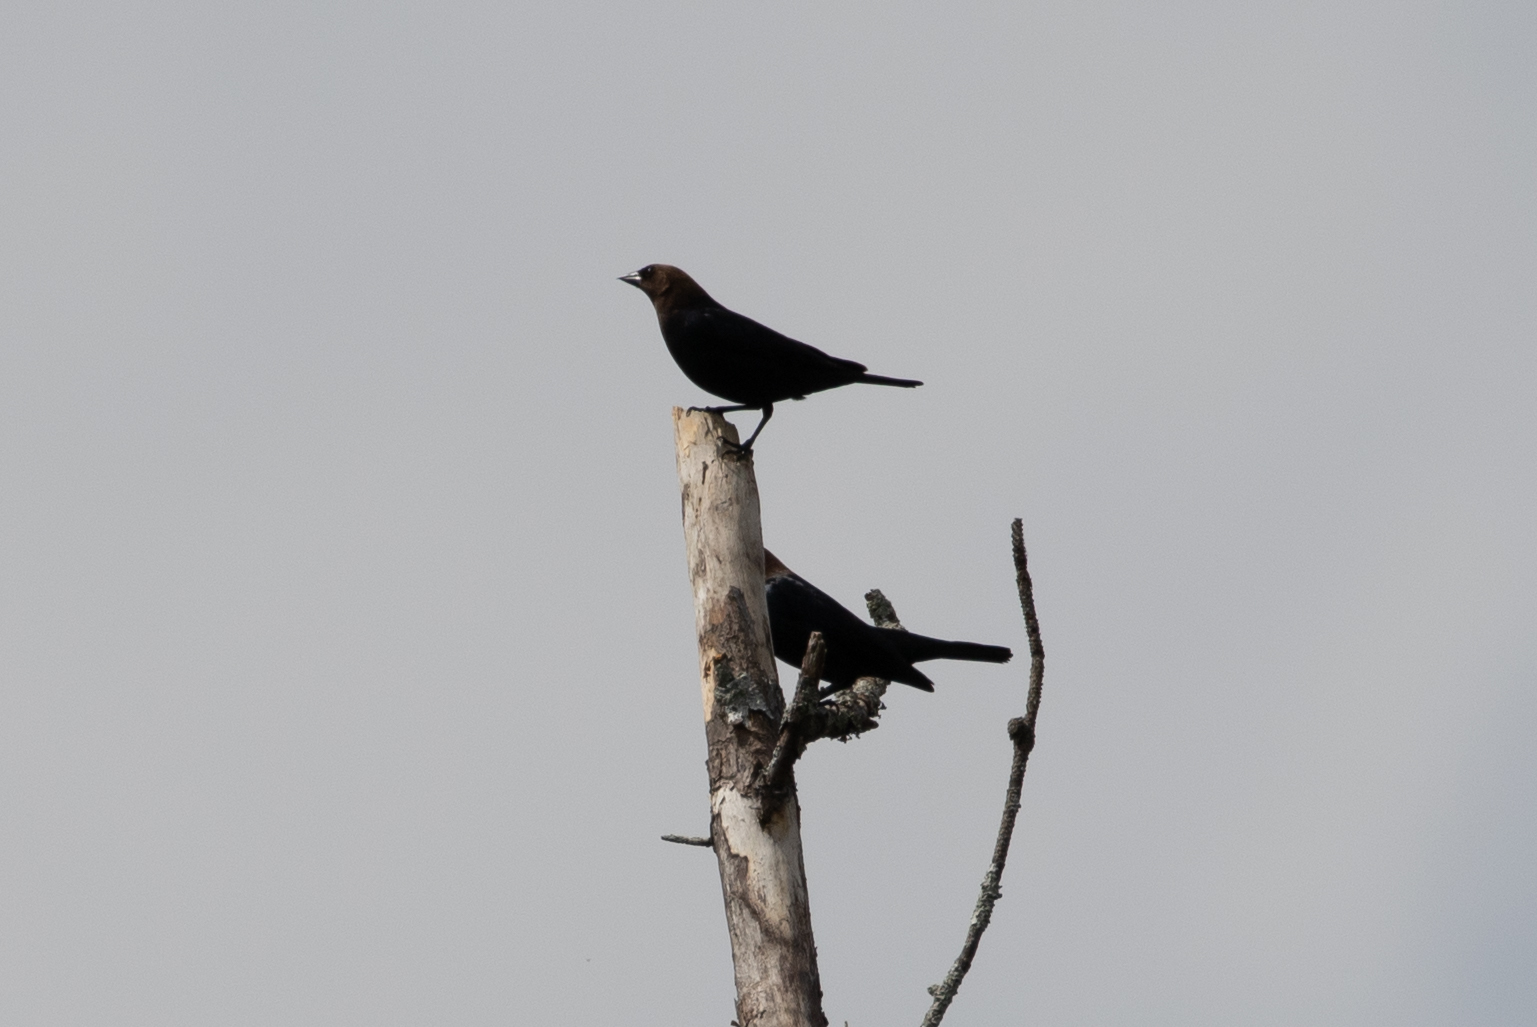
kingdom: Animalia
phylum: Chordata
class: Aves
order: Passeriformes
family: Icteridae
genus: Molothrus
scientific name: Molothrus ater
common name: Brown-headed cowbird
